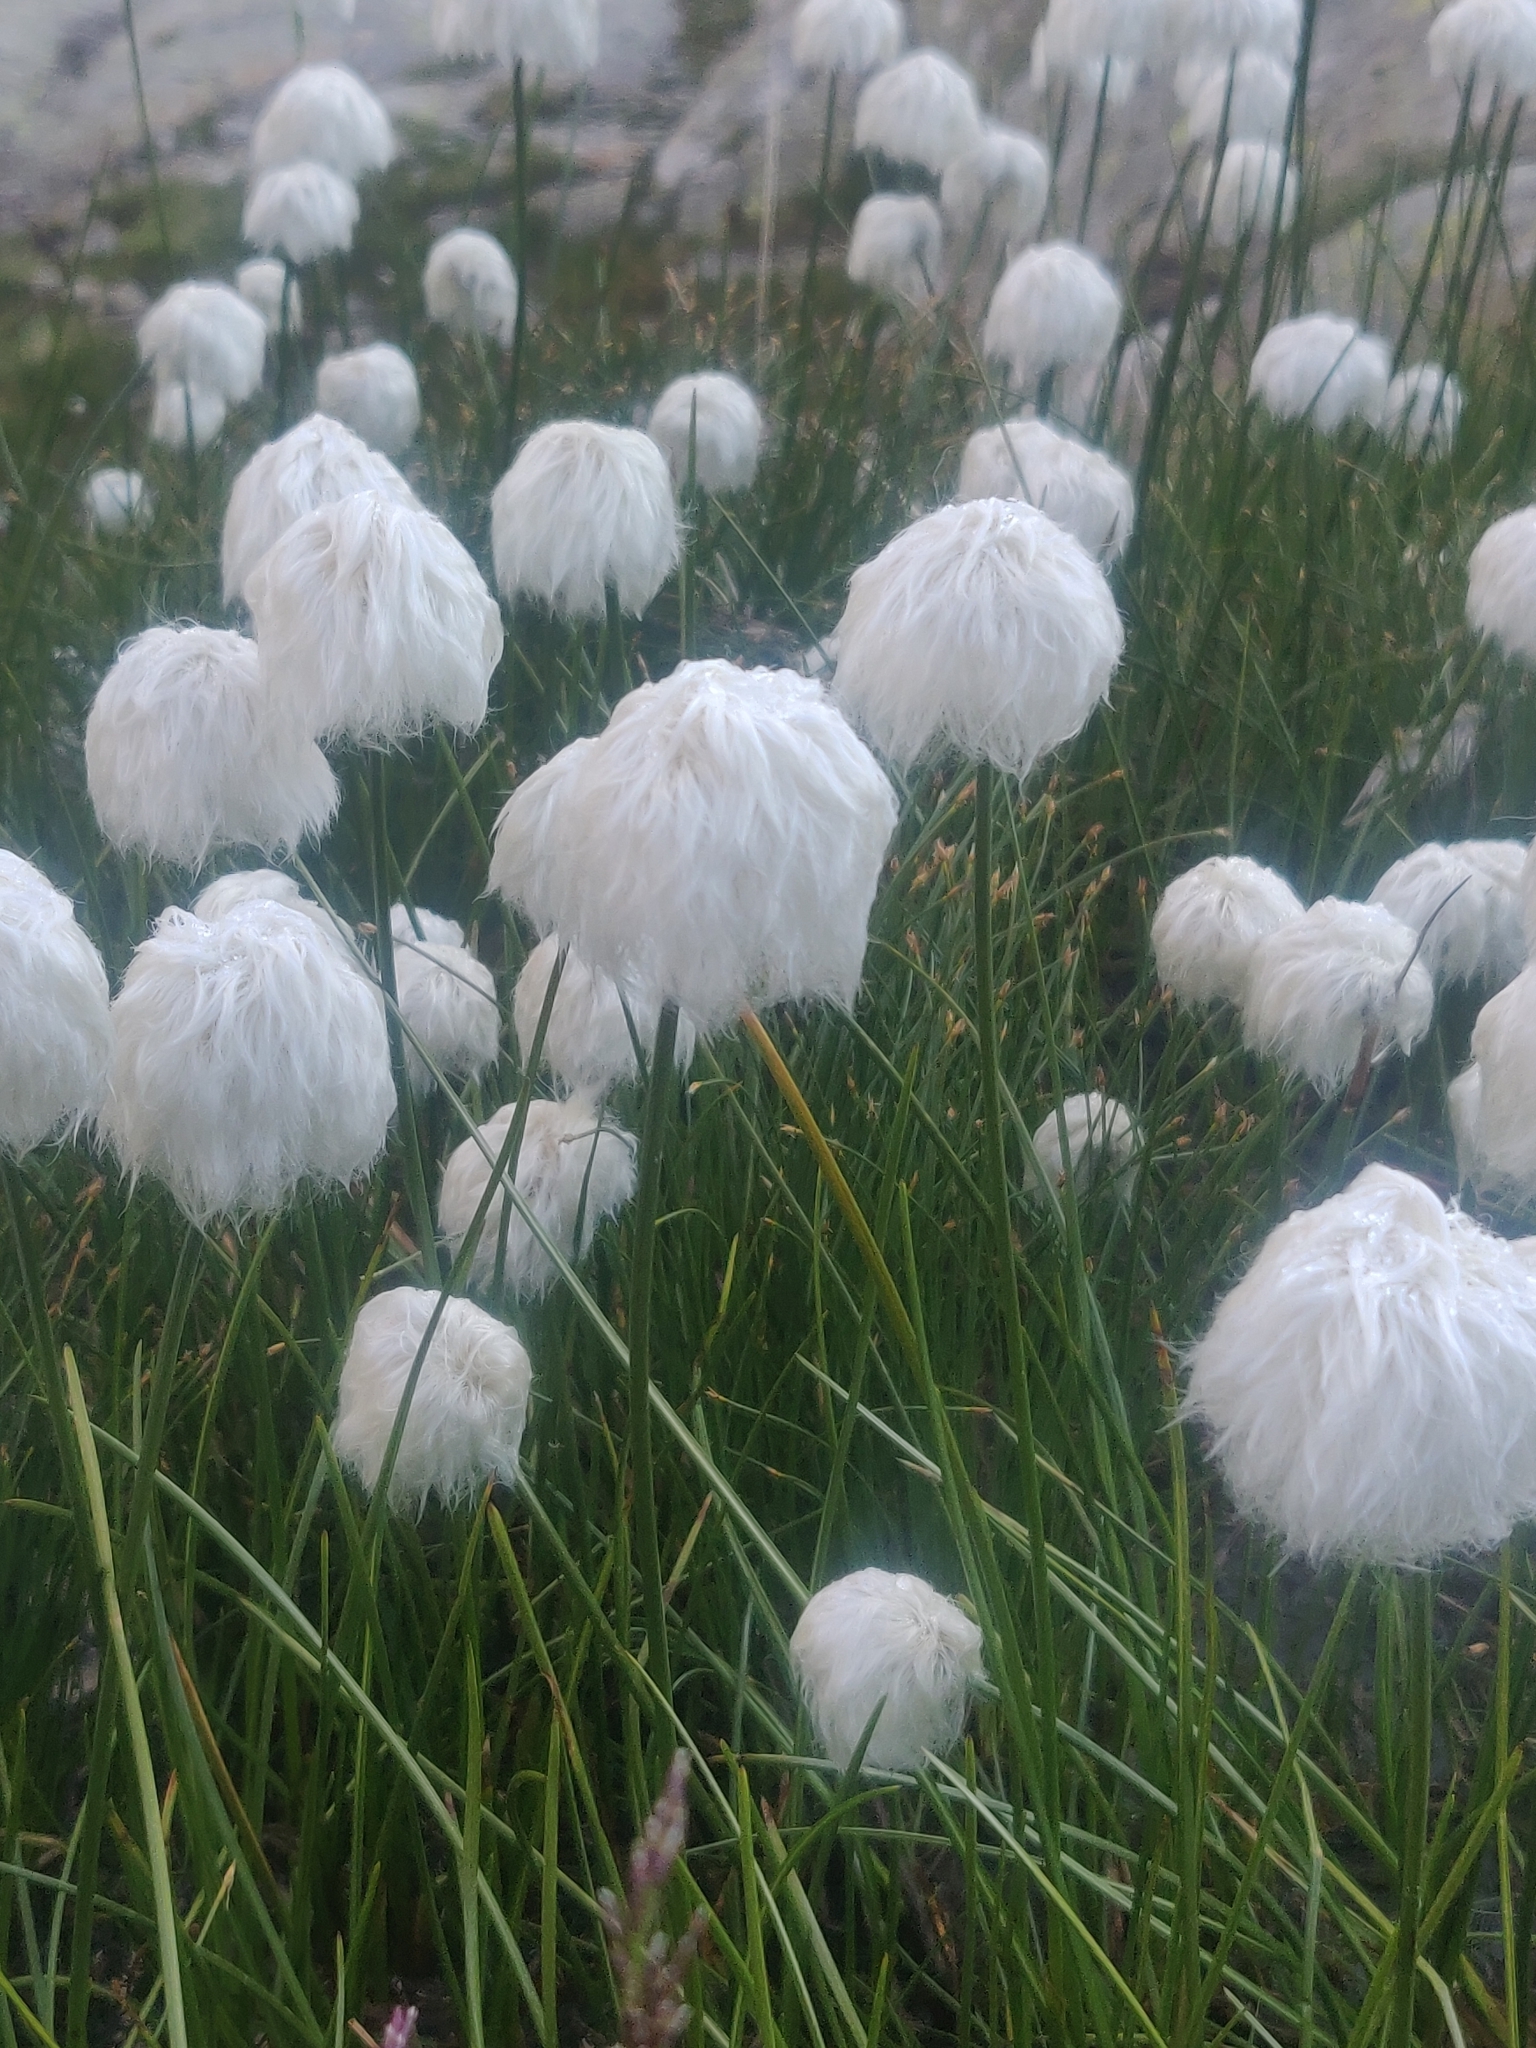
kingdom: Plantae
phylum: Tracheophyta
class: Liliopsida
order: Poales
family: Cyperaceae
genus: Eriophorum
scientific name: Eriophorum scheuchzeri
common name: Scheuchzer's cottongrass
